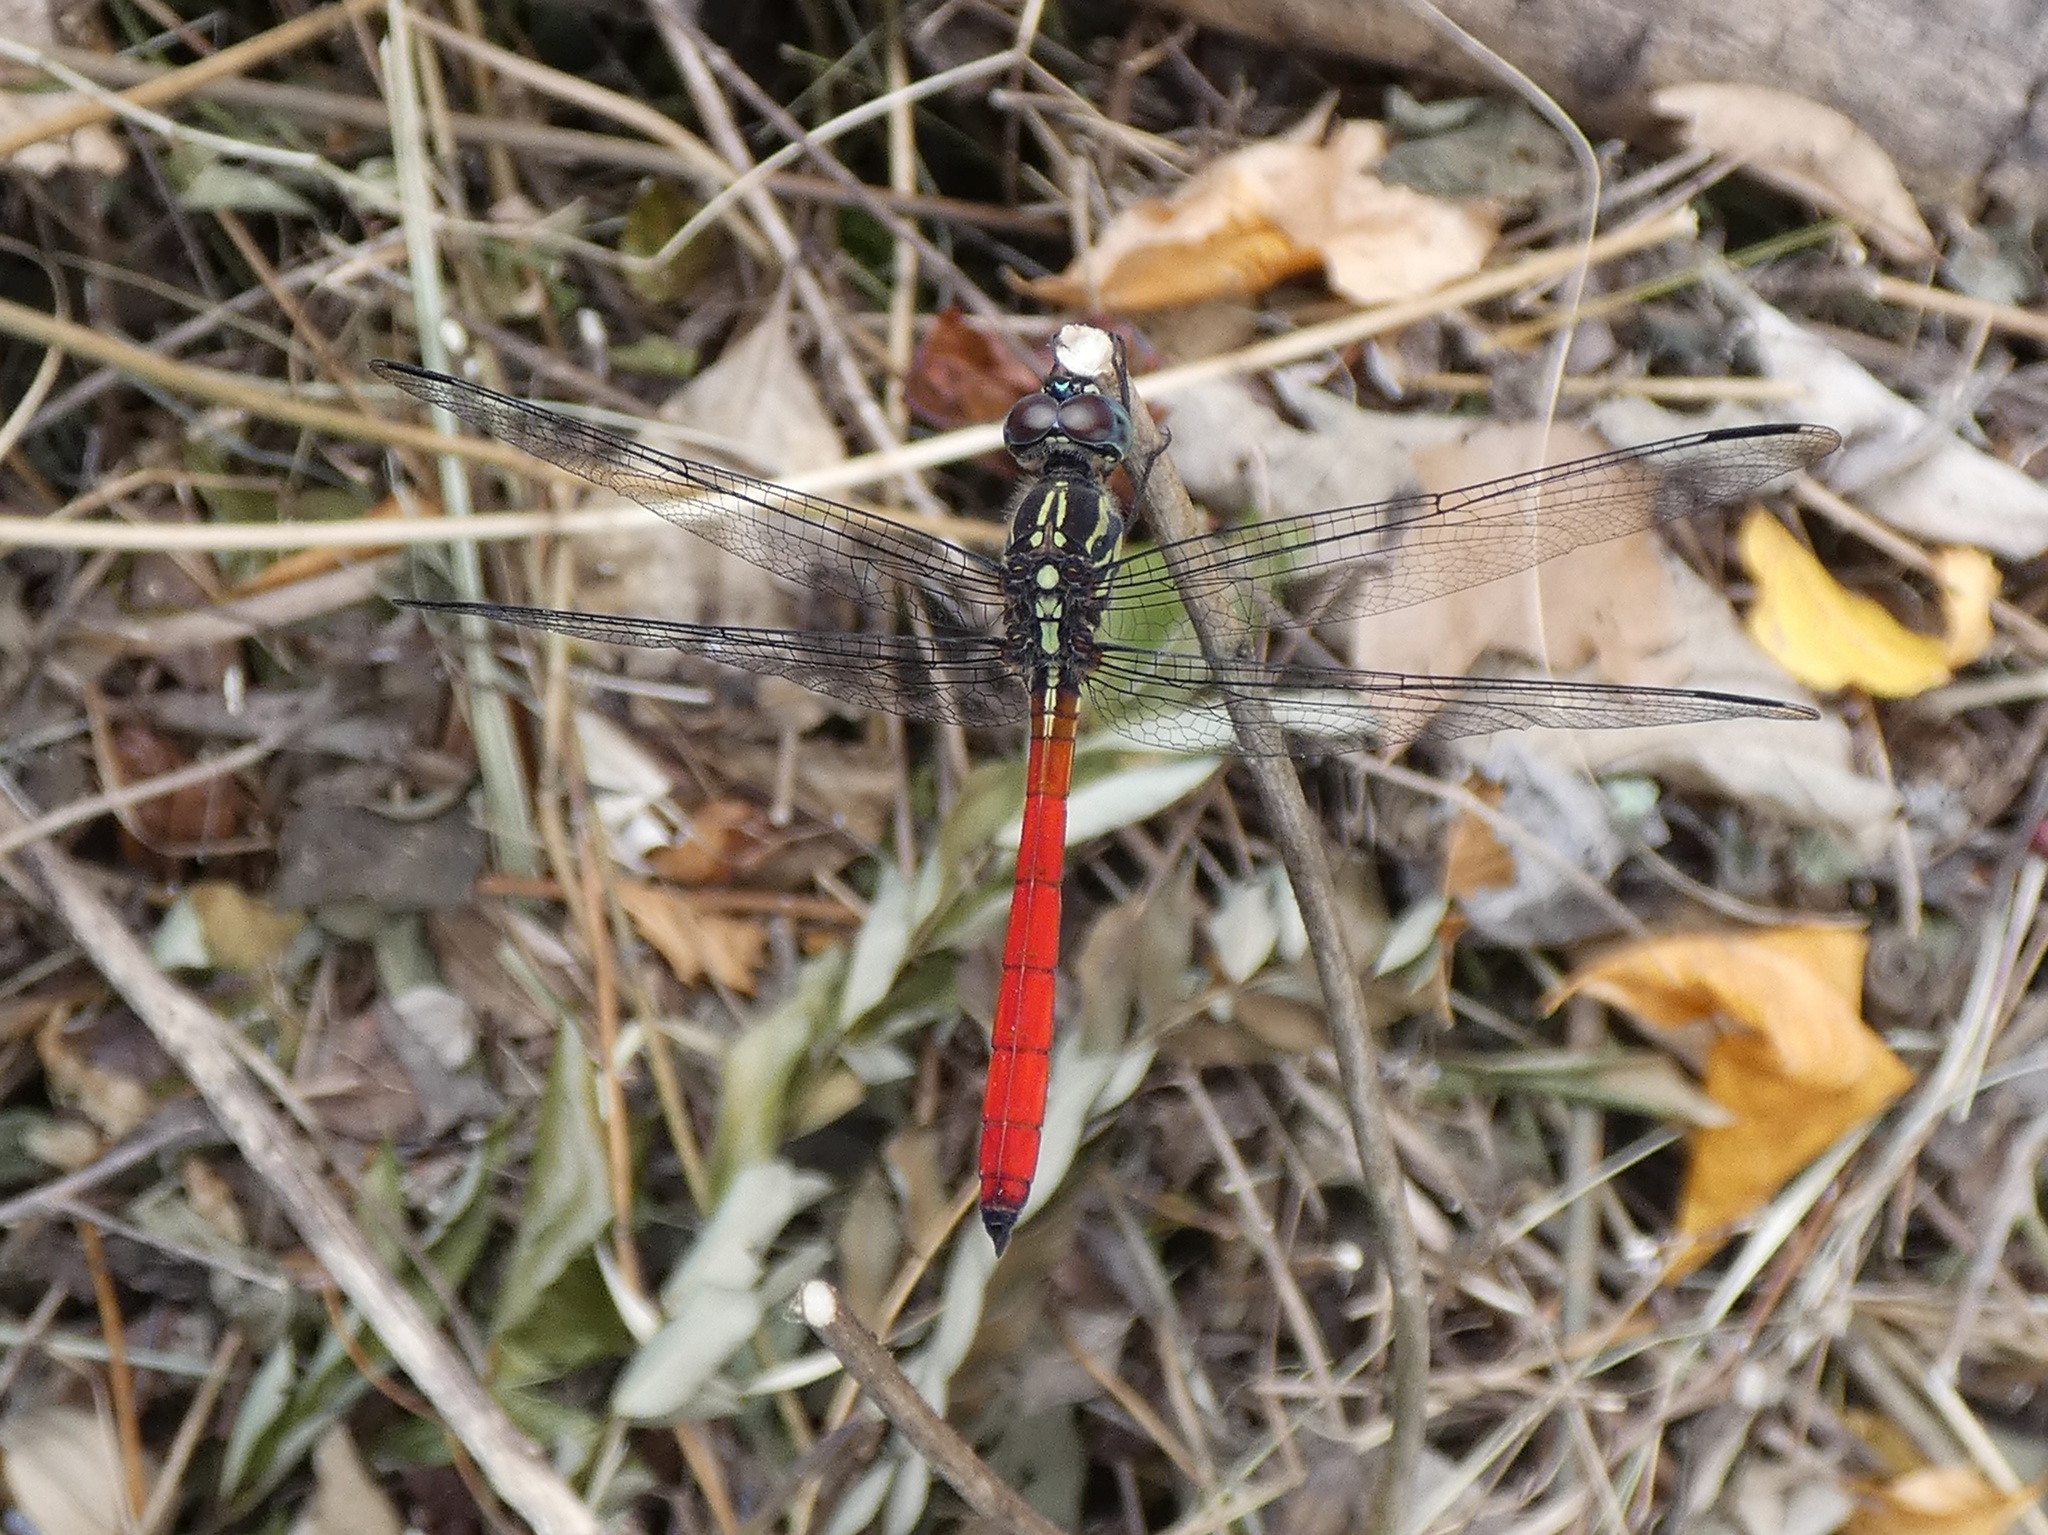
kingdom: Animalia
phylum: Arthropoda
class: Insecta
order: Odonata
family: Libellulidae
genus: Lathrecista
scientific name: Lathrecista asiatica
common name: Scarlet grenadier
